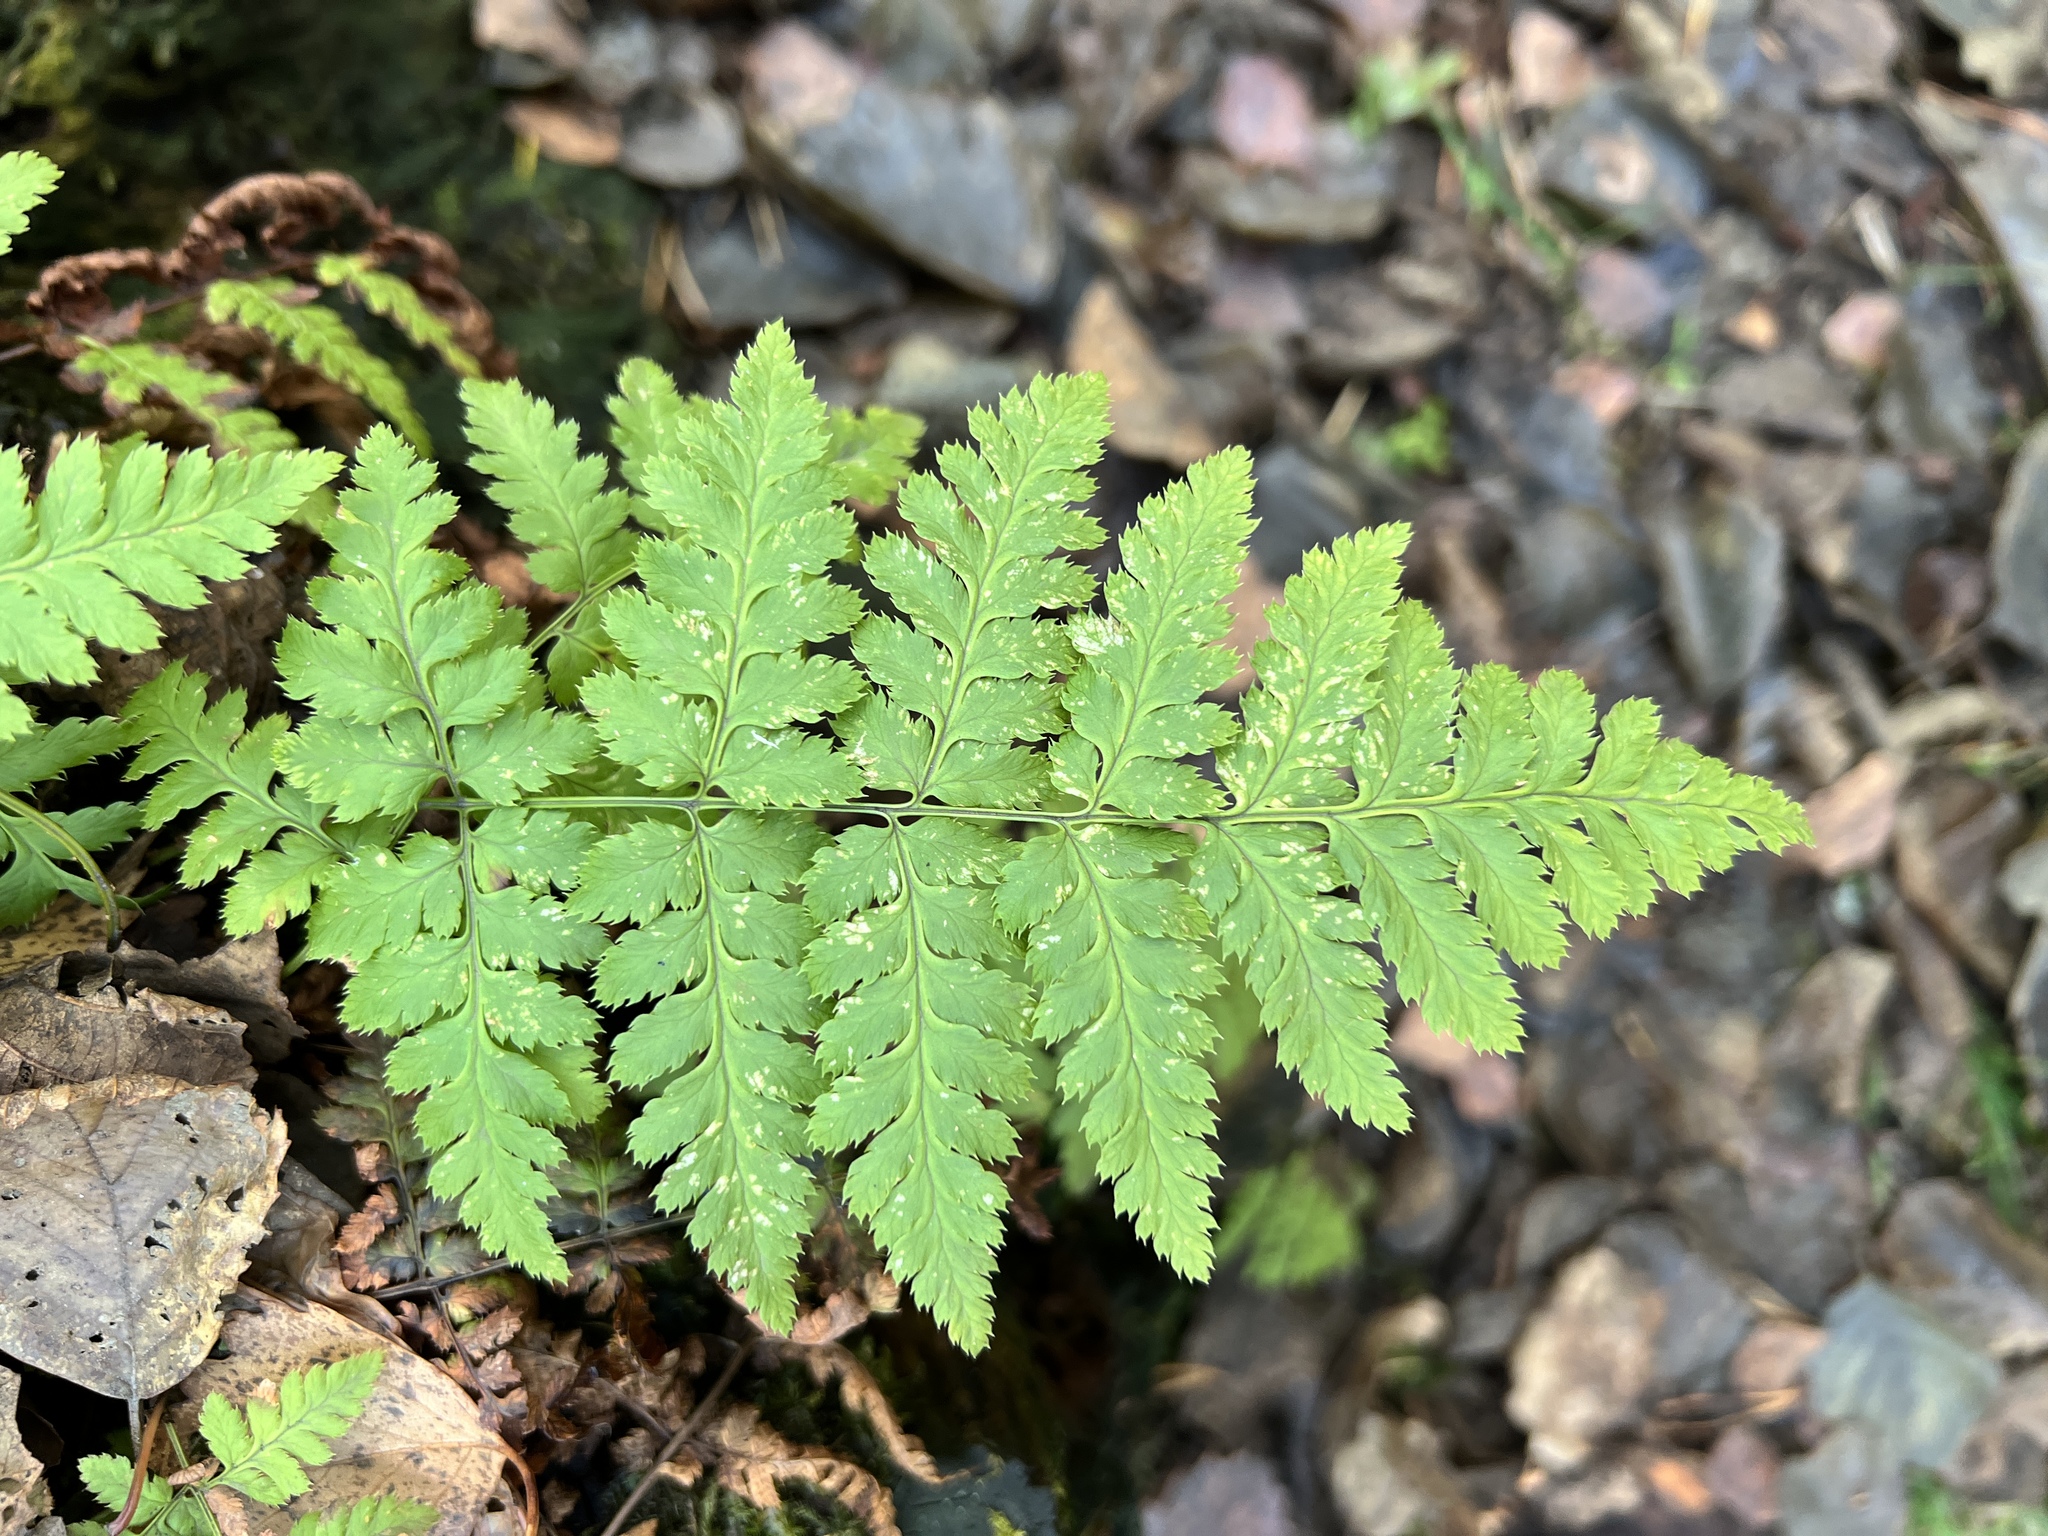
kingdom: Plantae
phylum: Tracheophyta
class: Polypodiopsida
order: Polypodiales
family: Dryopteridaceae
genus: Dryopteris
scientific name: Dryopteris carthusiana
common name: Narrow buckler-fern
